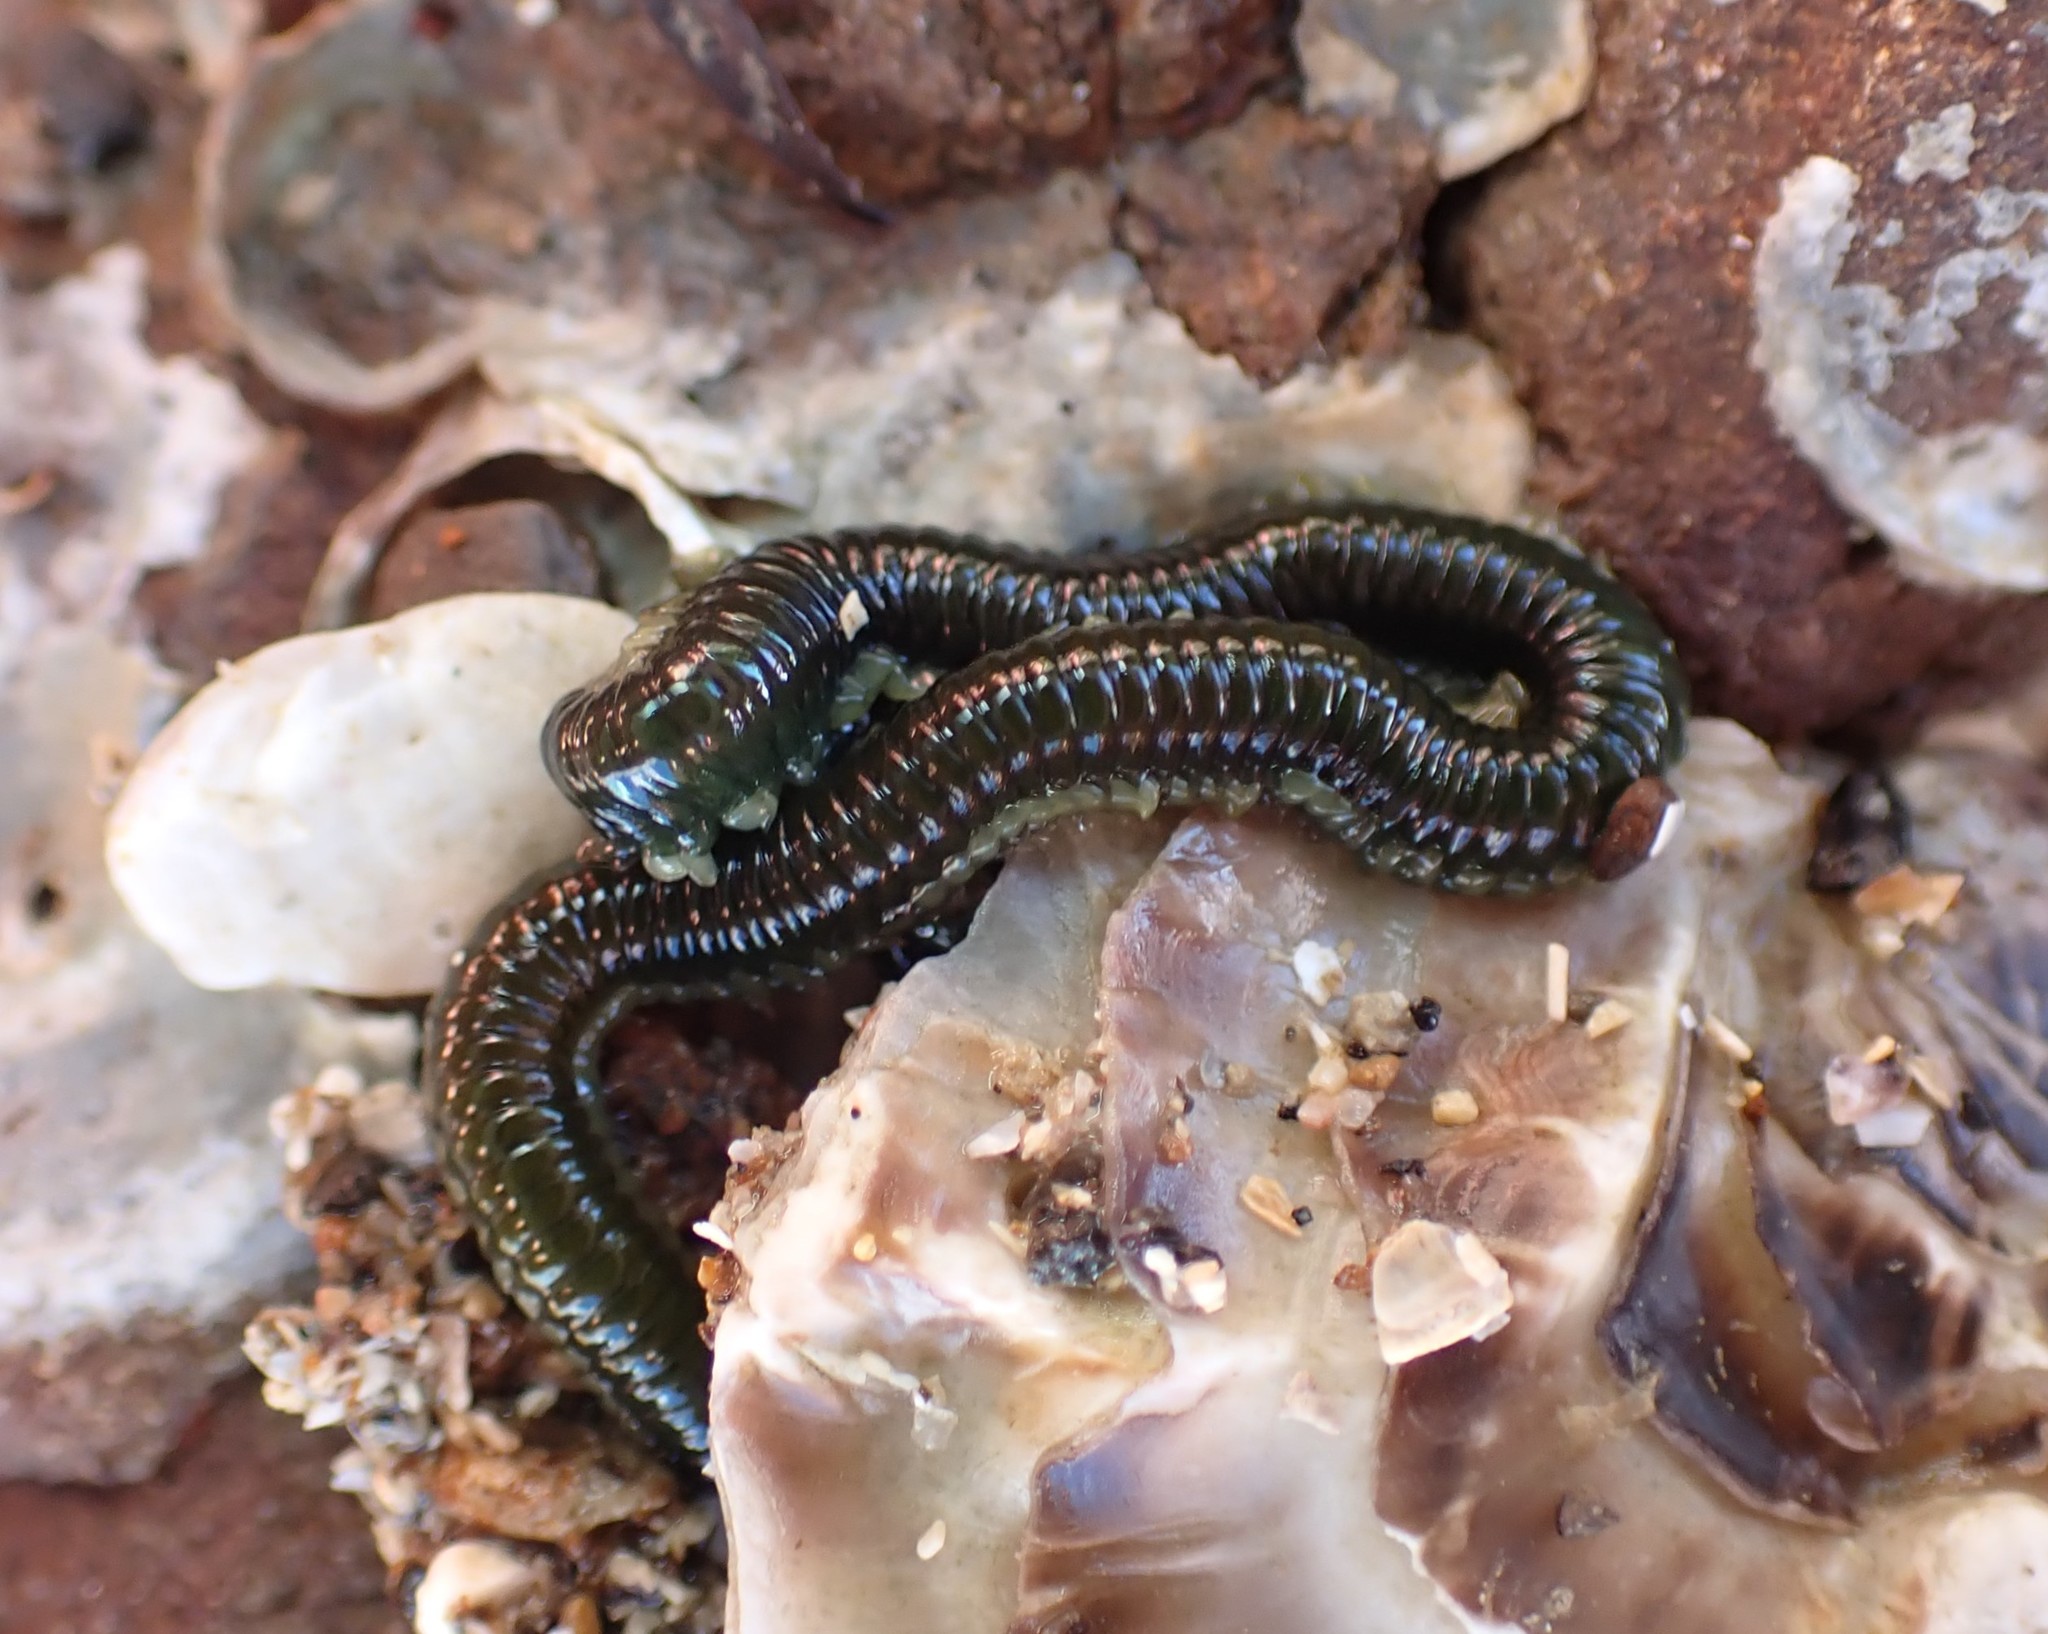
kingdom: Animalia
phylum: Annelida
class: Polychaeta
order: Phyllodocida
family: Phyllodocidae
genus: Eulalia
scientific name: Eulalia microphylla
